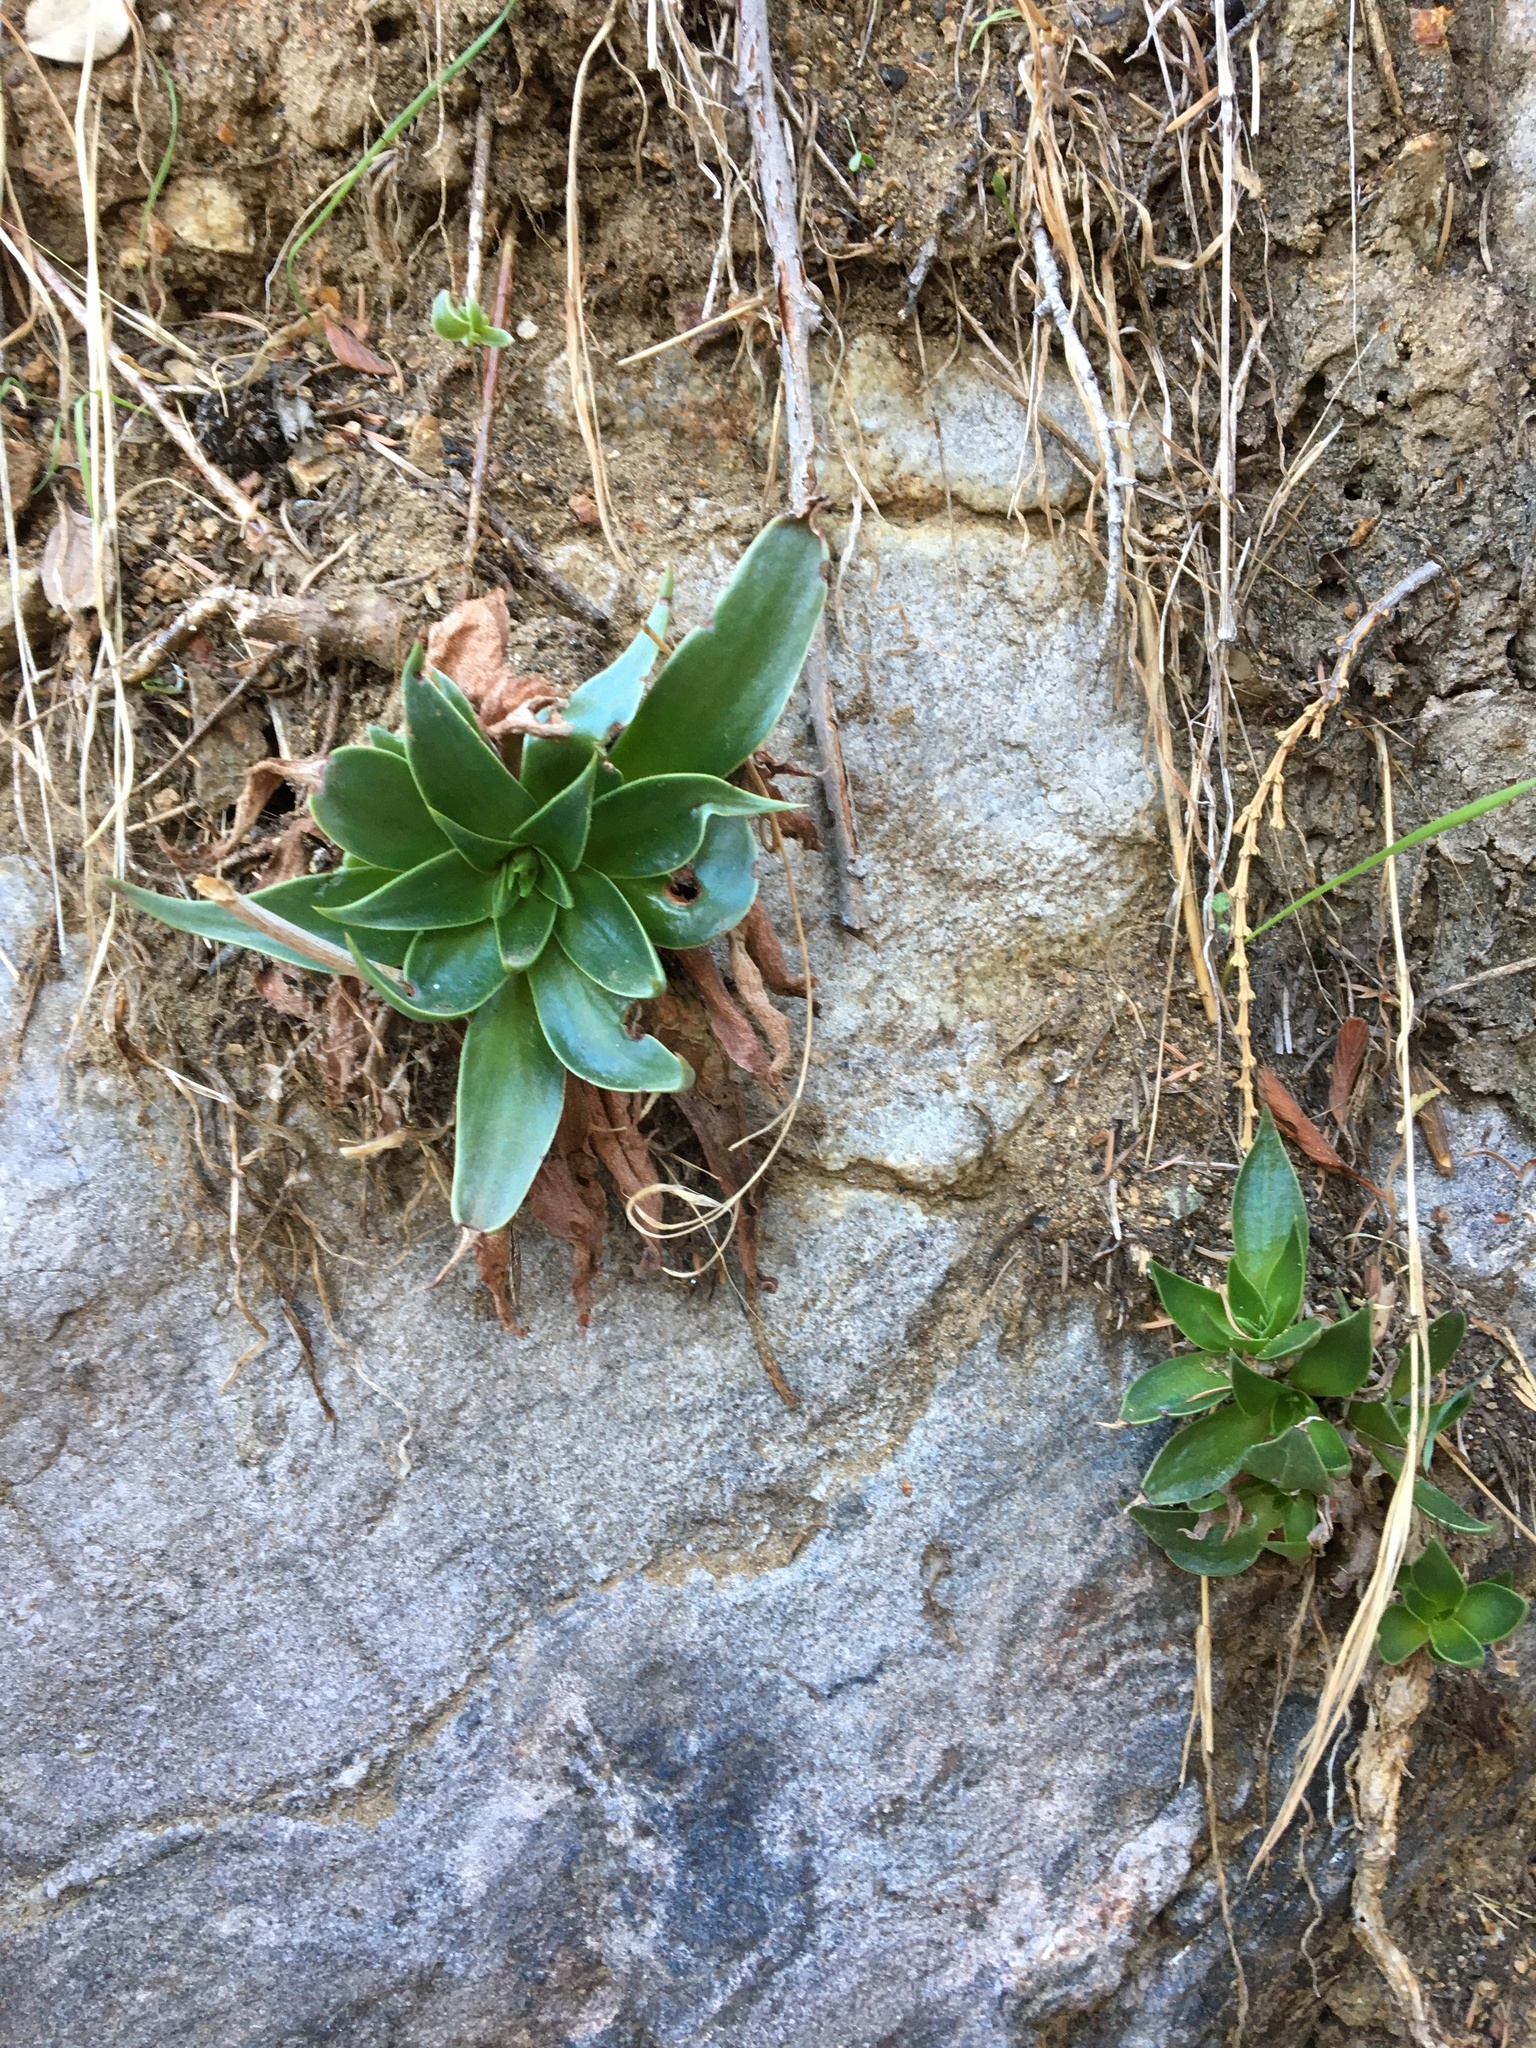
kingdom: Plantae
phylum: Tracheophyta
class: Magnoliopsida
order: Saxifragales
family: Crassulaceae
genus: Dudleya
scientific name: Dudleya lanceolata
